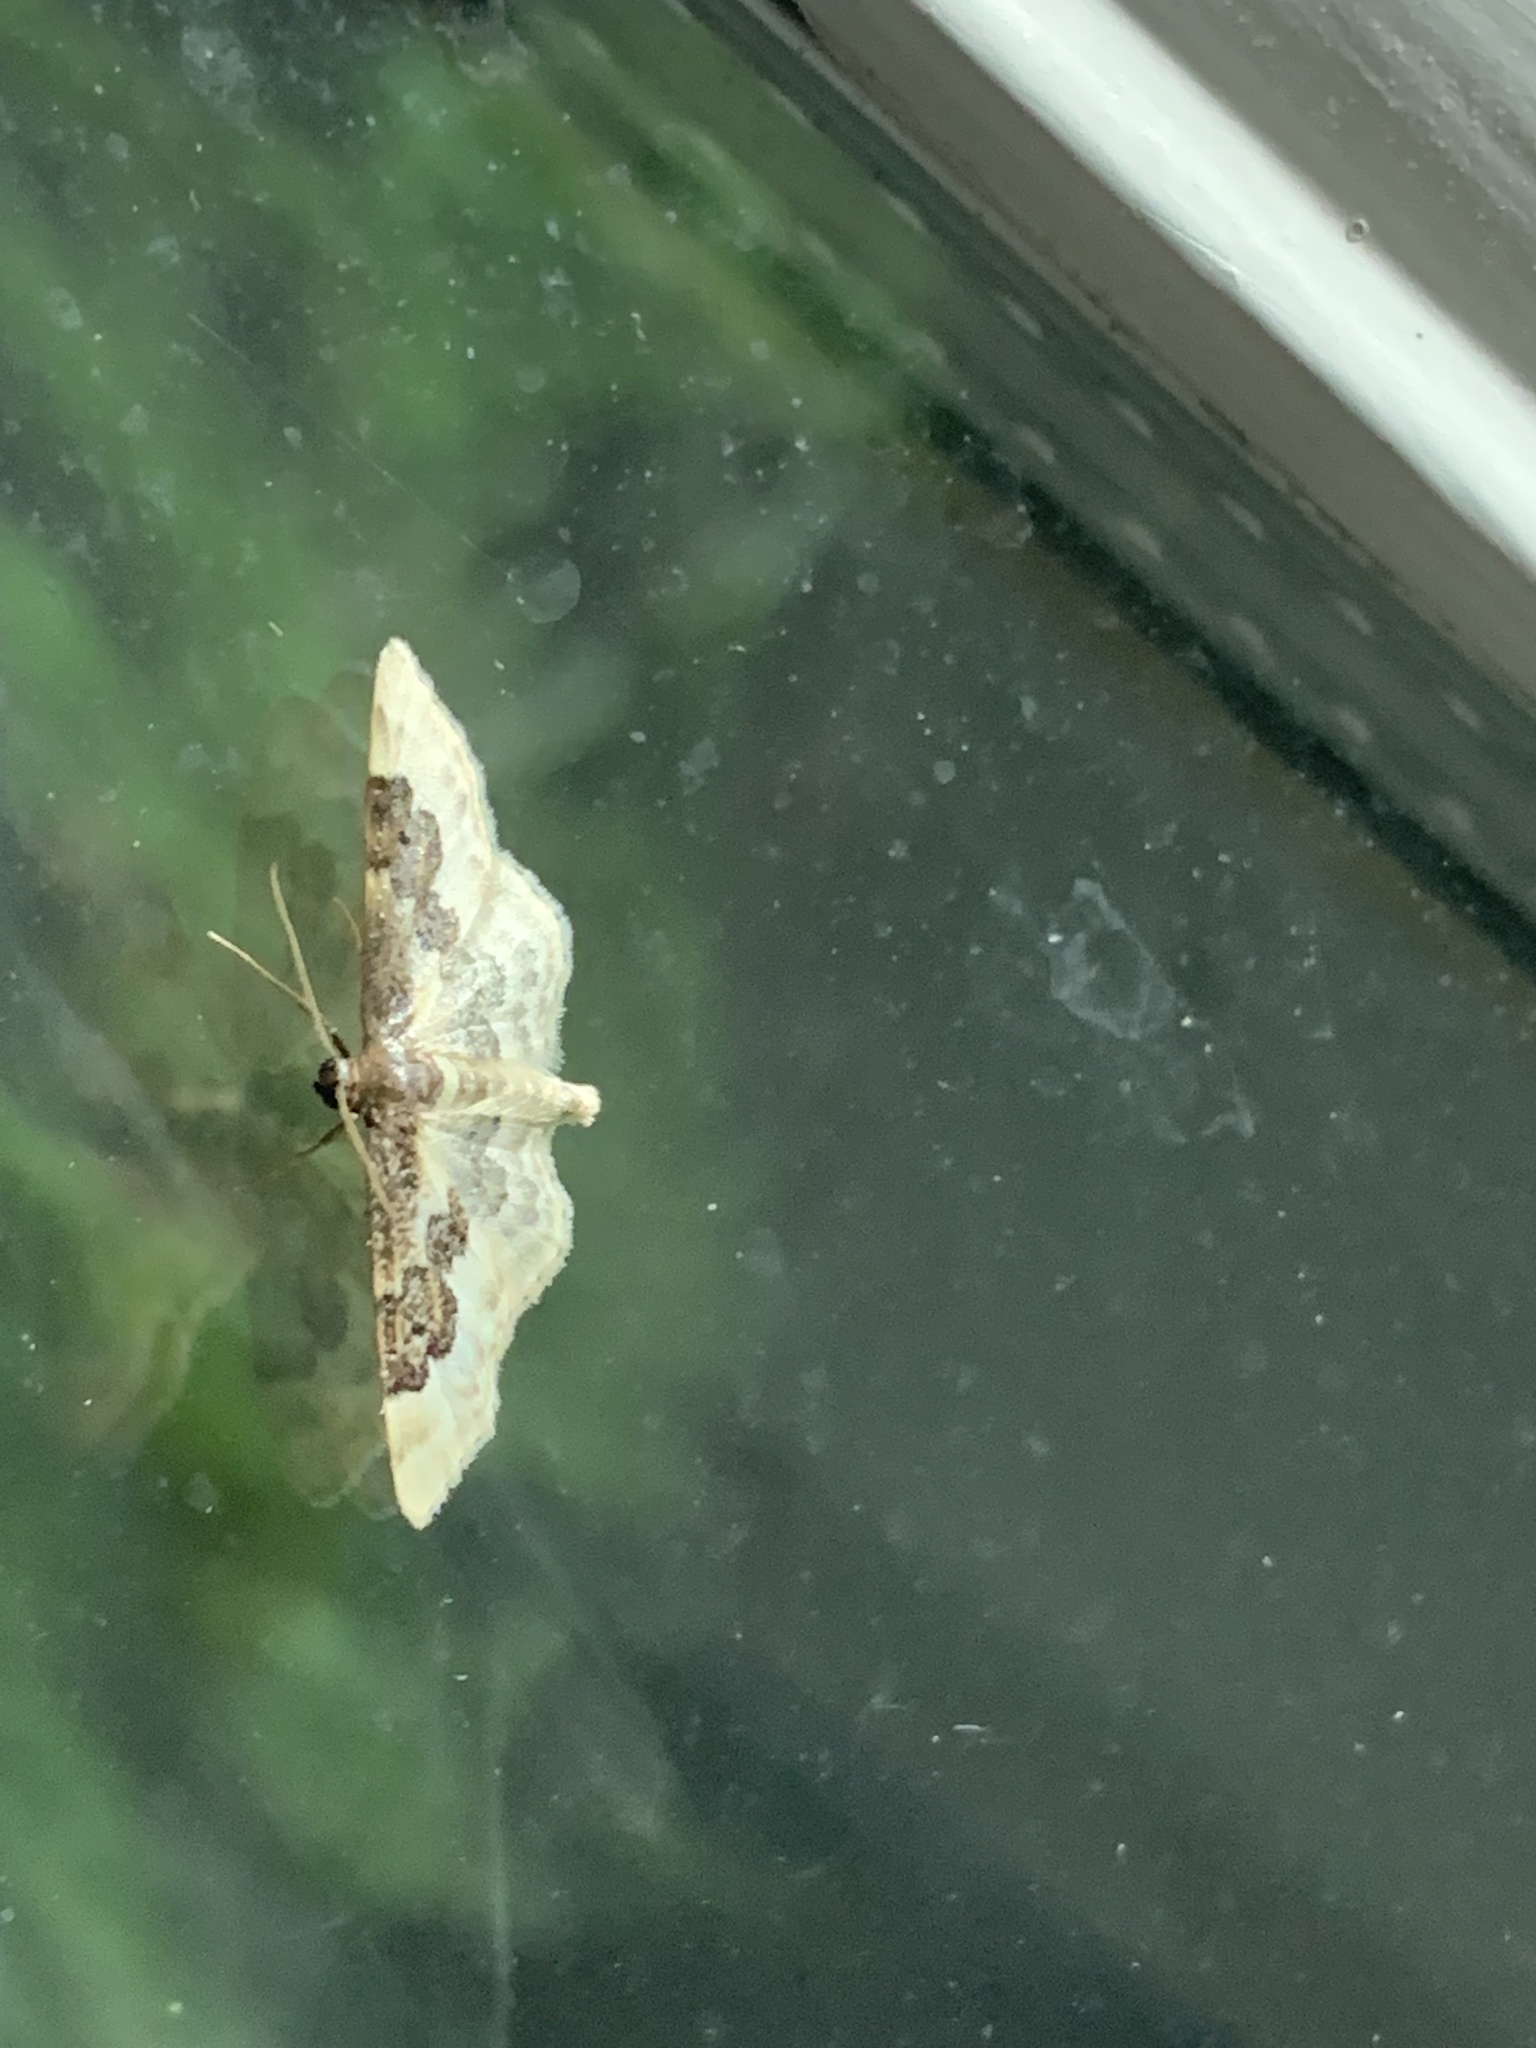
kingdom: Animalia
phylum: Arthropoda
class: Insecta
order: Lepidoptera
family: Geometridae
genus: Idaea
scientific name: Idaea rusticata
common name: Least carpet
